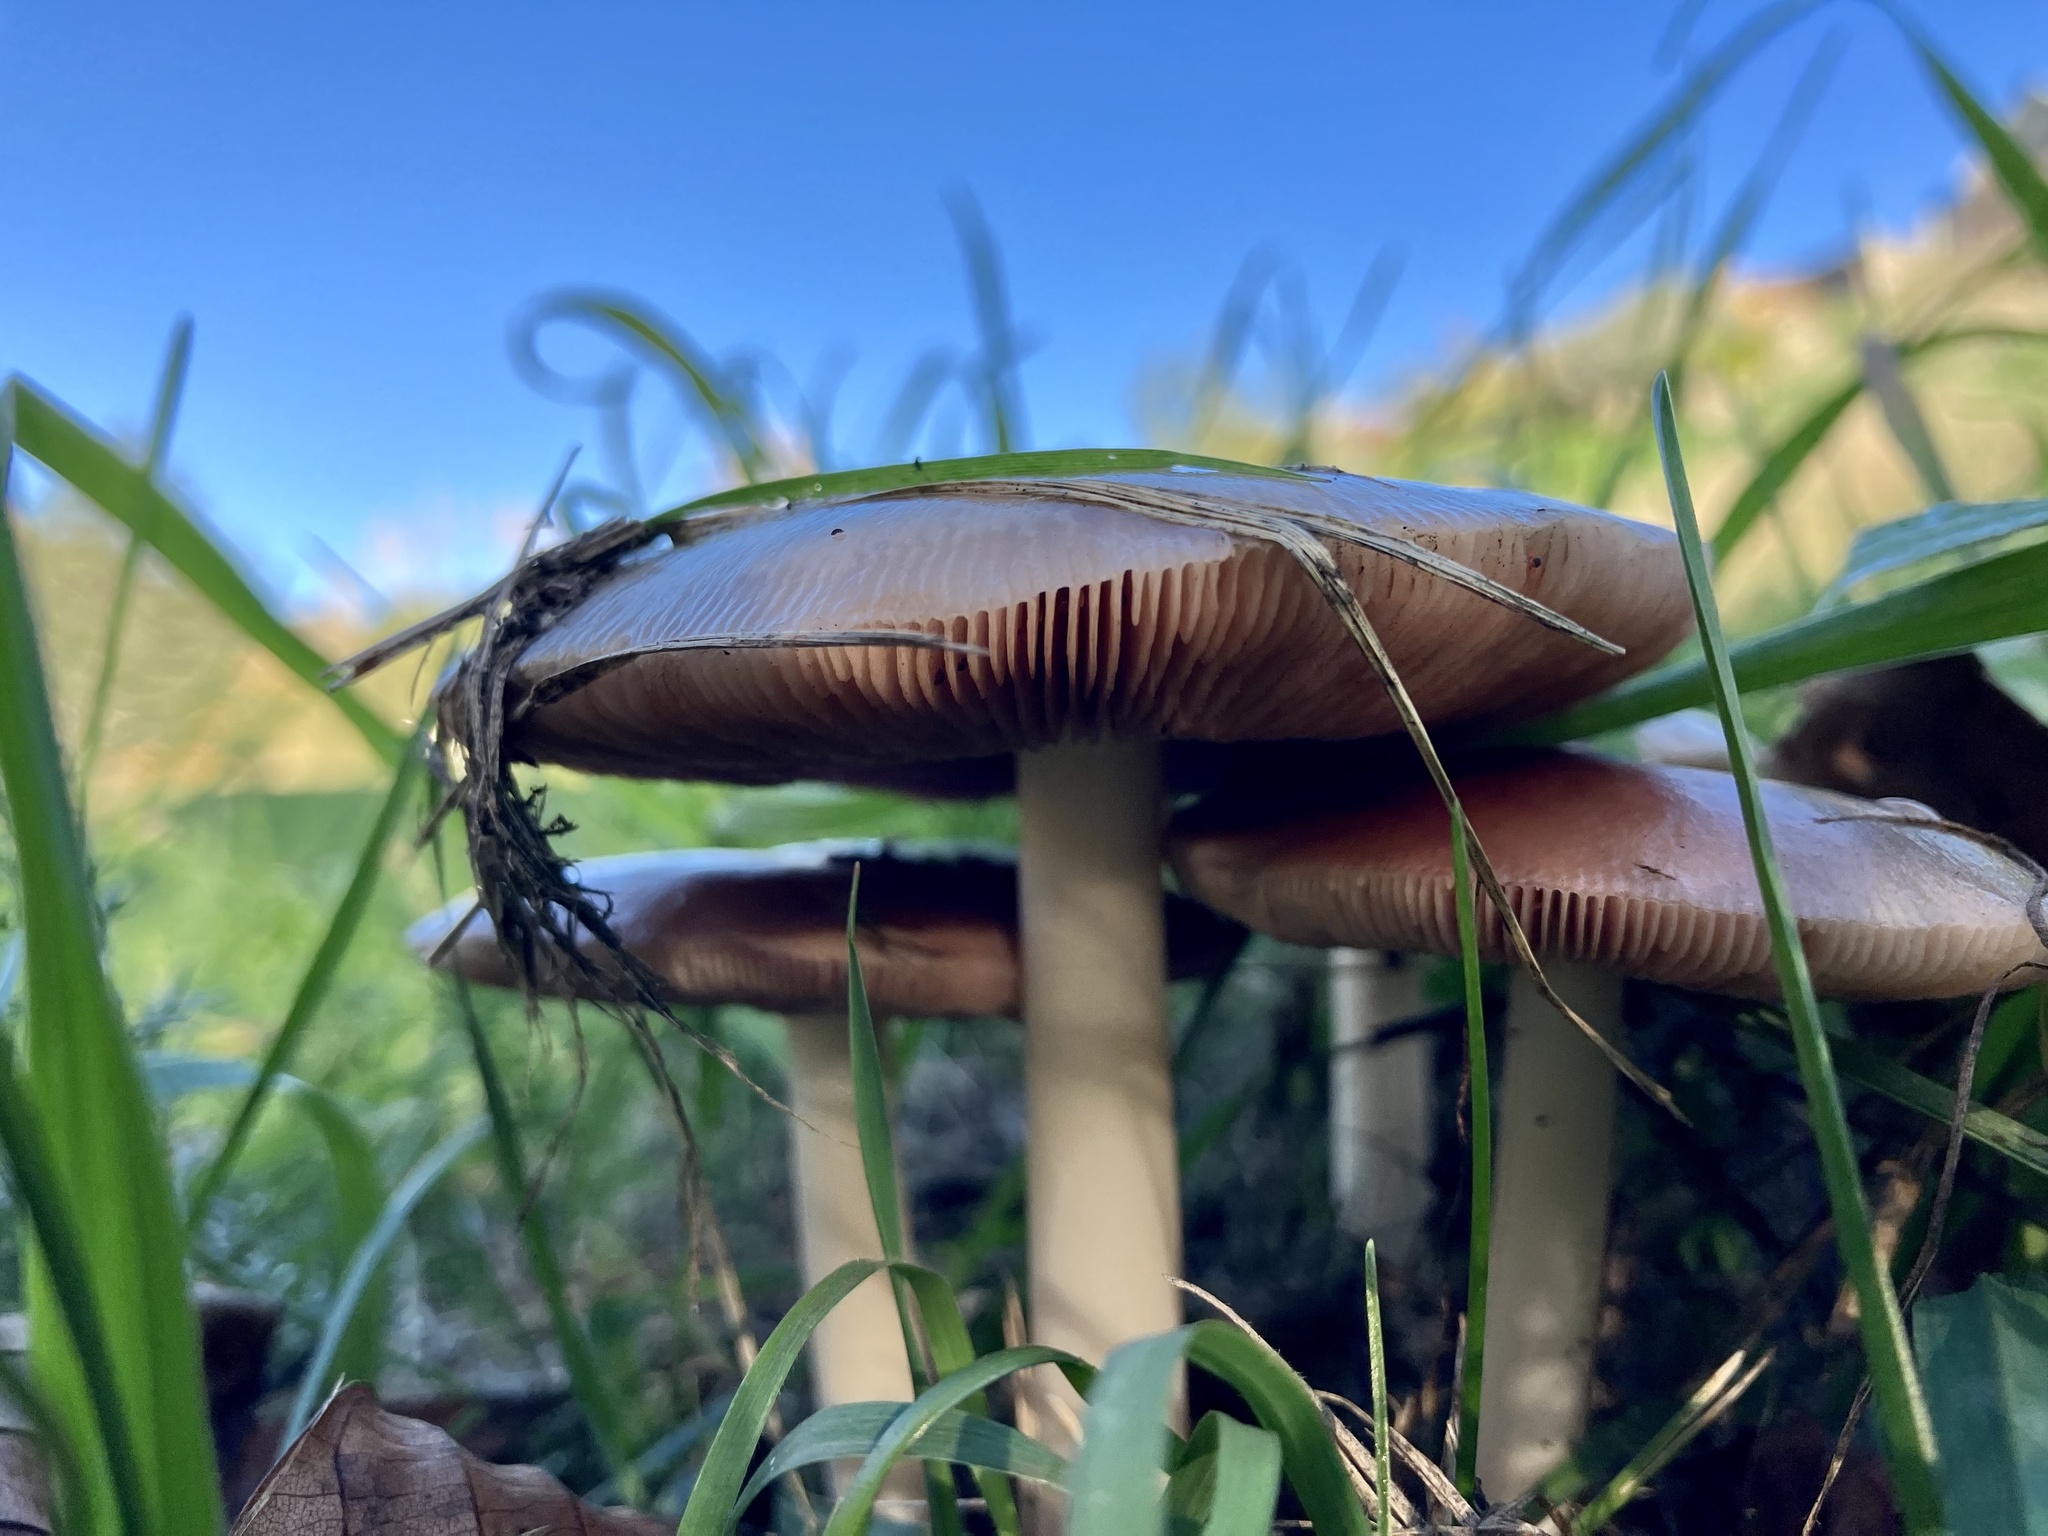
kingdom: Fungi
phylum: Basidiomycota
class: Agaricomycetes
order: Agaricales
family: Pluteaceae
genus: Volvopluteus
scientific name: Volvopluteus gloiocephalus
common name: Stubble rosegill
